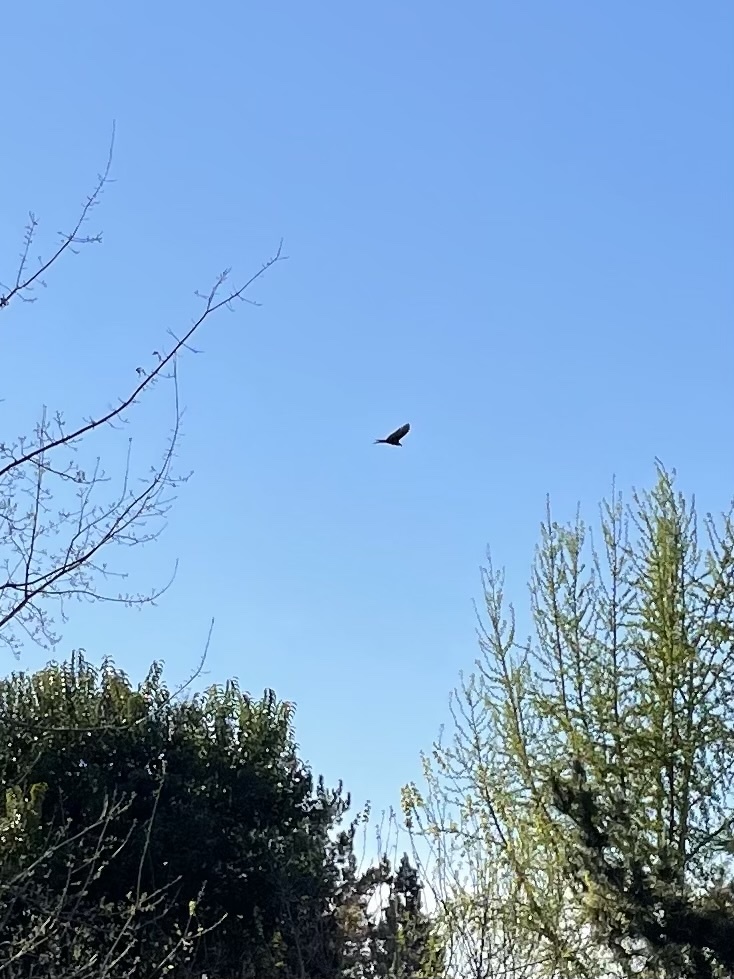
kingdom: Animalia
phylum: Chordata
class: Aves
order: Accipitriformes
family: Cathartidae
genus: Cathartes
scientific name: Cathartes aura
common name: Turkey vulture
